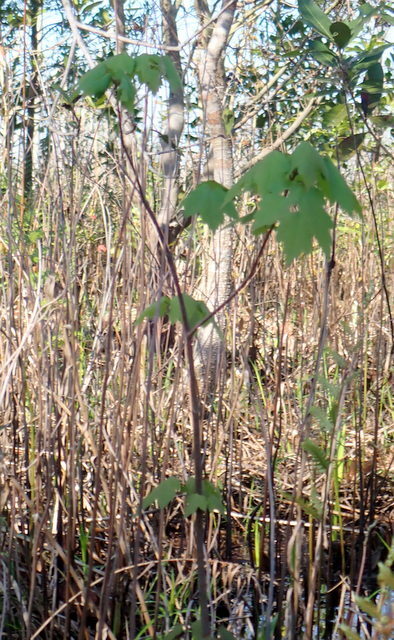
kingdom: Plantae
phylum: Tracheophyta
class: Magnoliopsida
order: Sapindales
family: Sapindaceae
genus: Acer
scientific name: Acer rubrum
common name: Red maple
